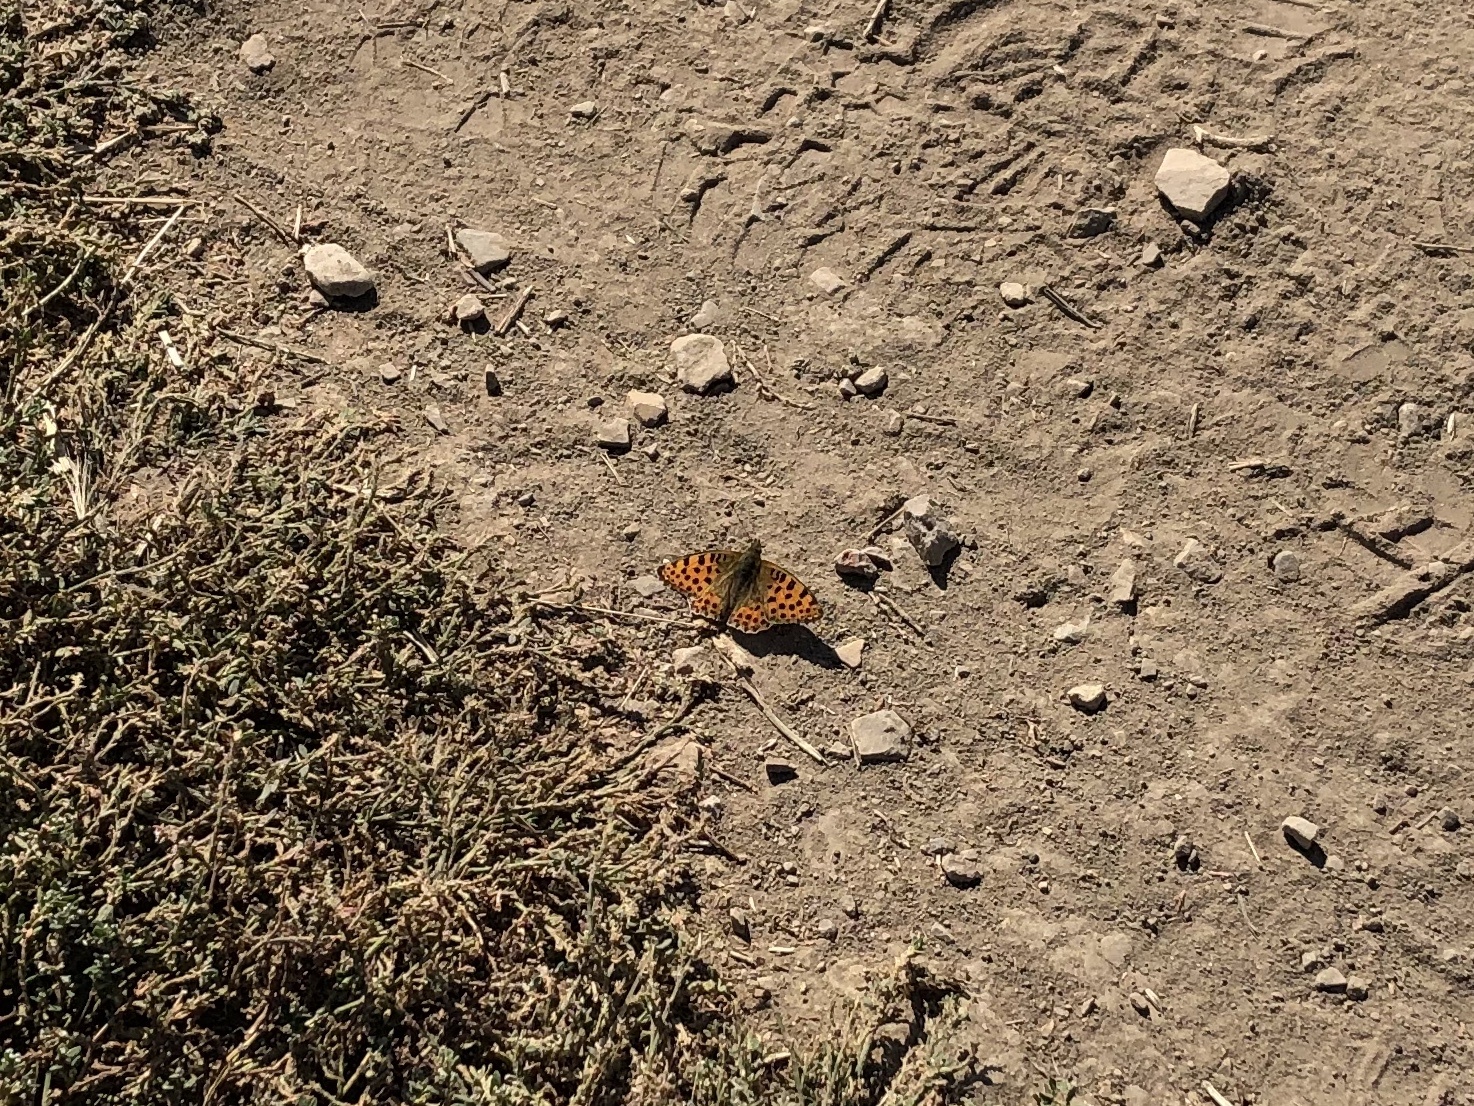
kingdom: Animalia
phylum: Arthropoda
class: Insecta
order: Lepidoptera
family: Nymphalidae
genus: Issoria
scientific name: Issoria lathonia
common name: Queen of spain fritillary
